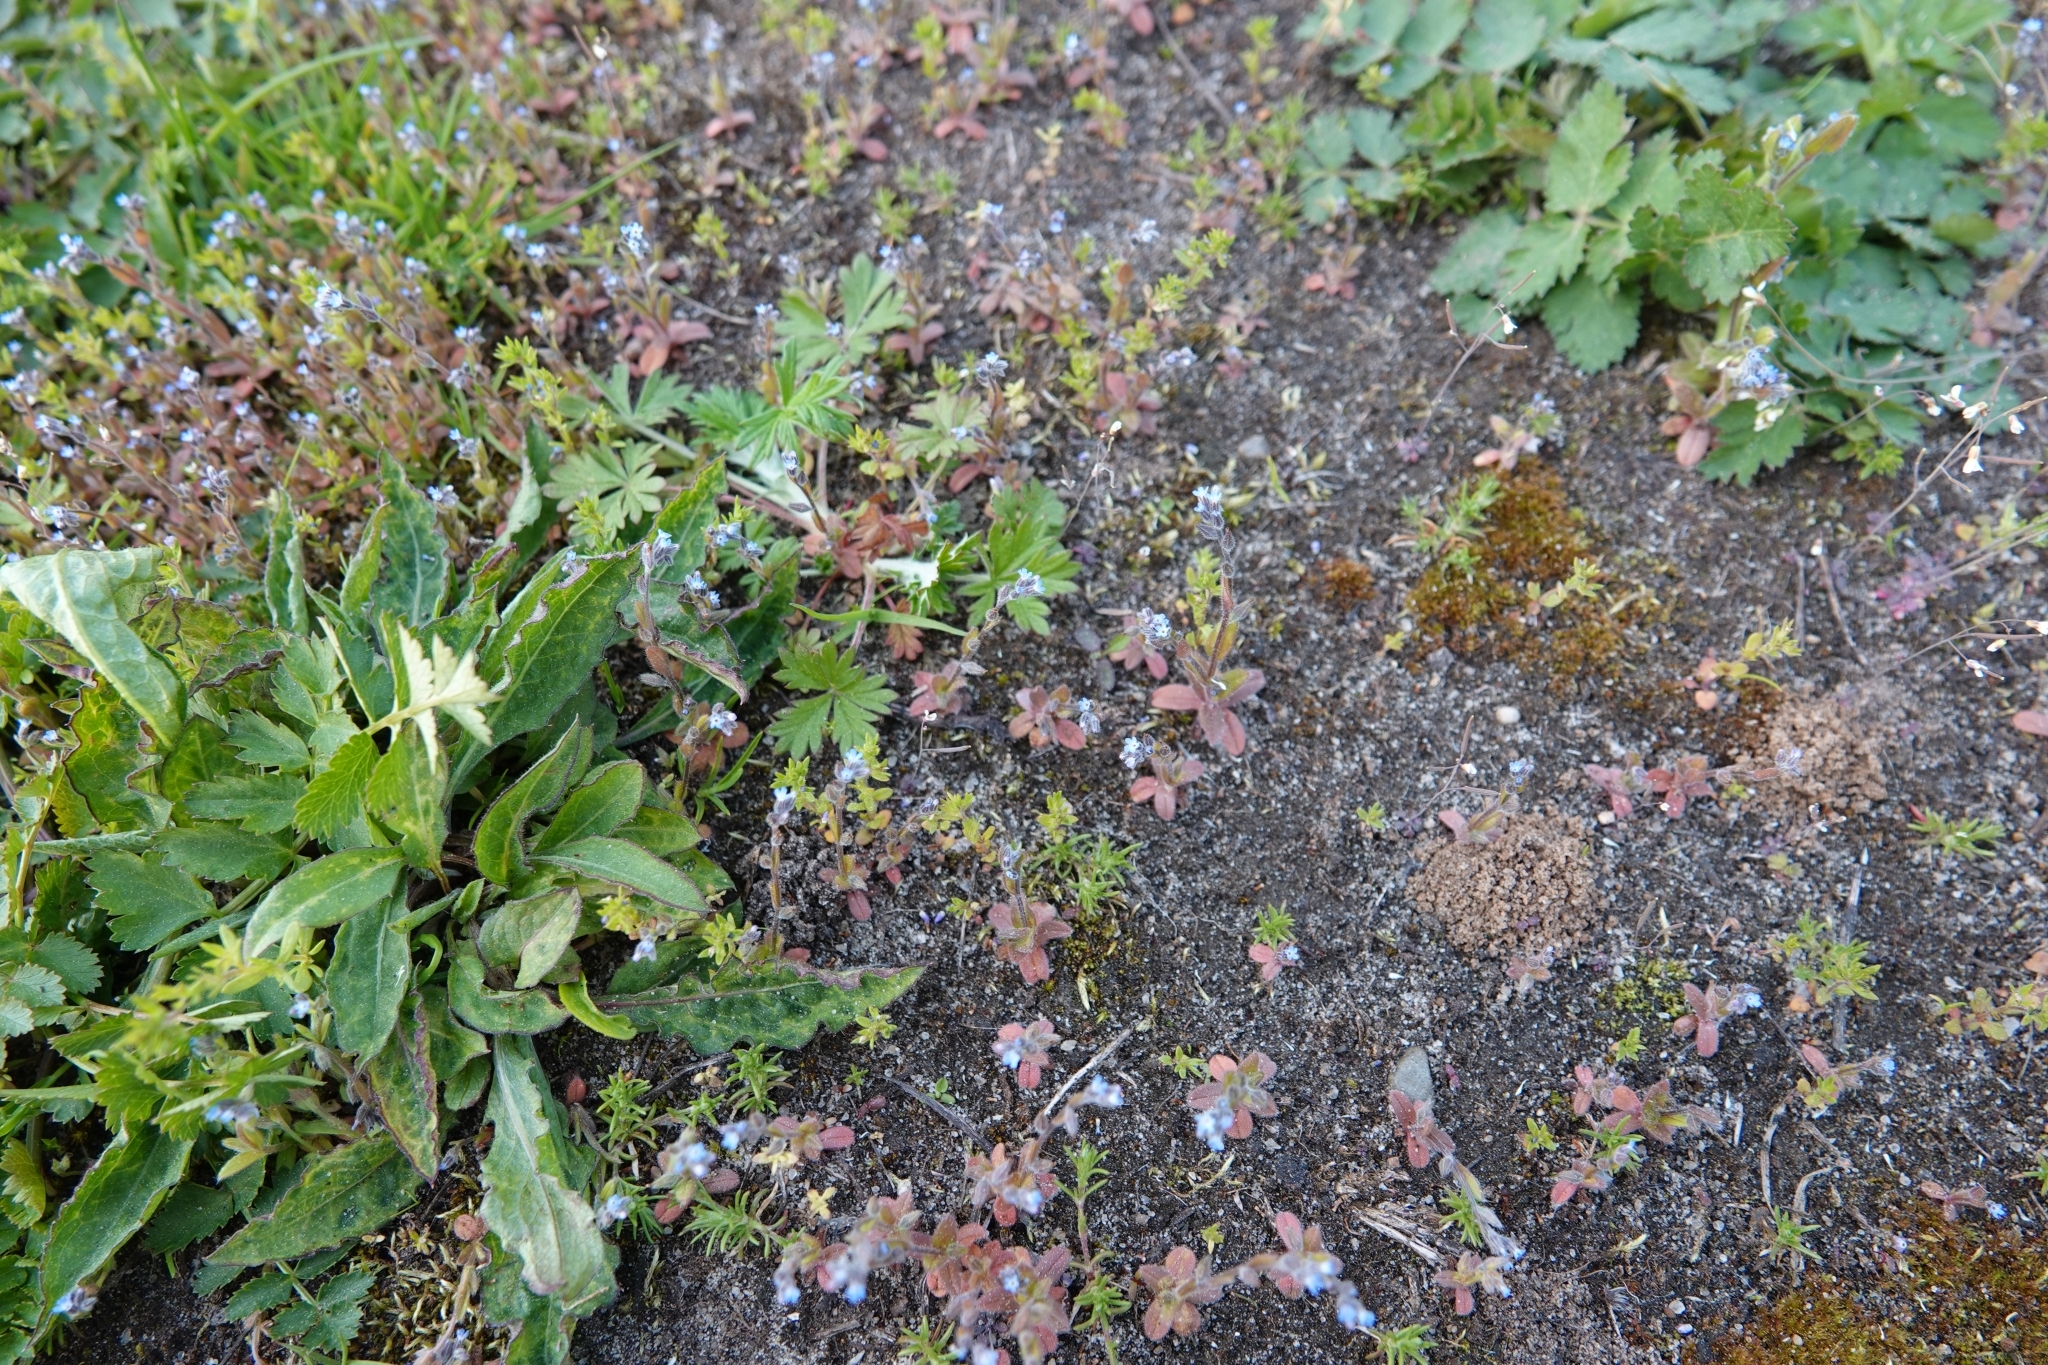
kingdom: Plantae
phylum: Tracheophyta
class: Magnoliopsida
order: Boraginales
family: Boraginaceae
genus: Myosotis
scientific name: Myosotis stricta
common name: Strict forget-me-not
